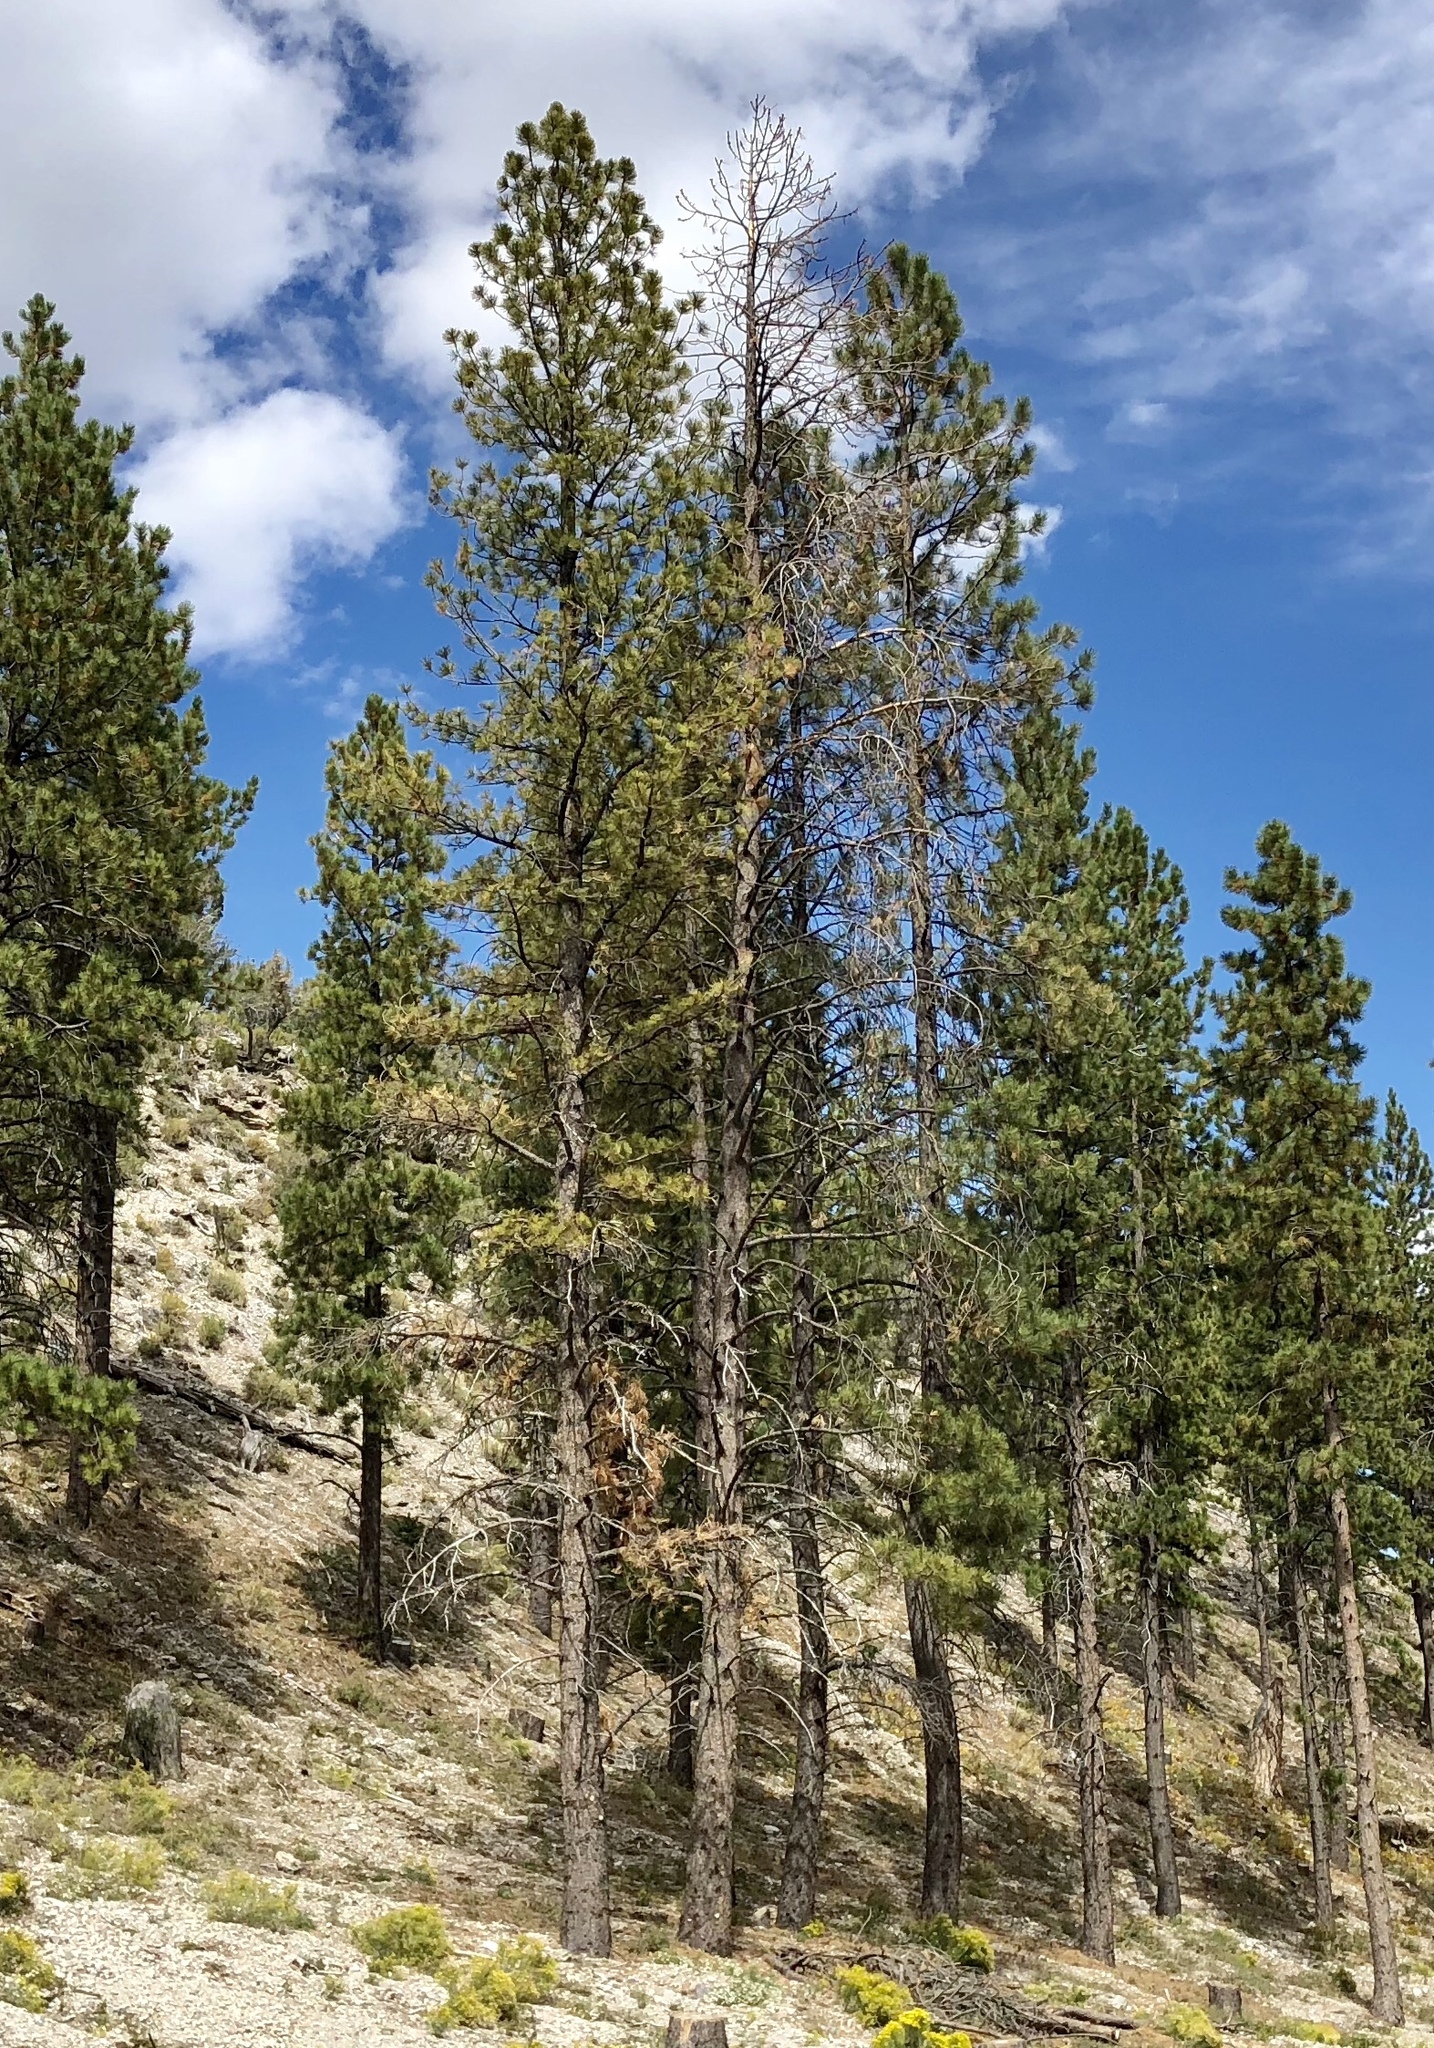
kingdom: Plantae
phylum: Tracheophyta
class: Pinopsida
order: Pinales
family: Pinaceae
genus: Pinus
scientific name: Pinus ponderosa
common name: Western yellow-pine
